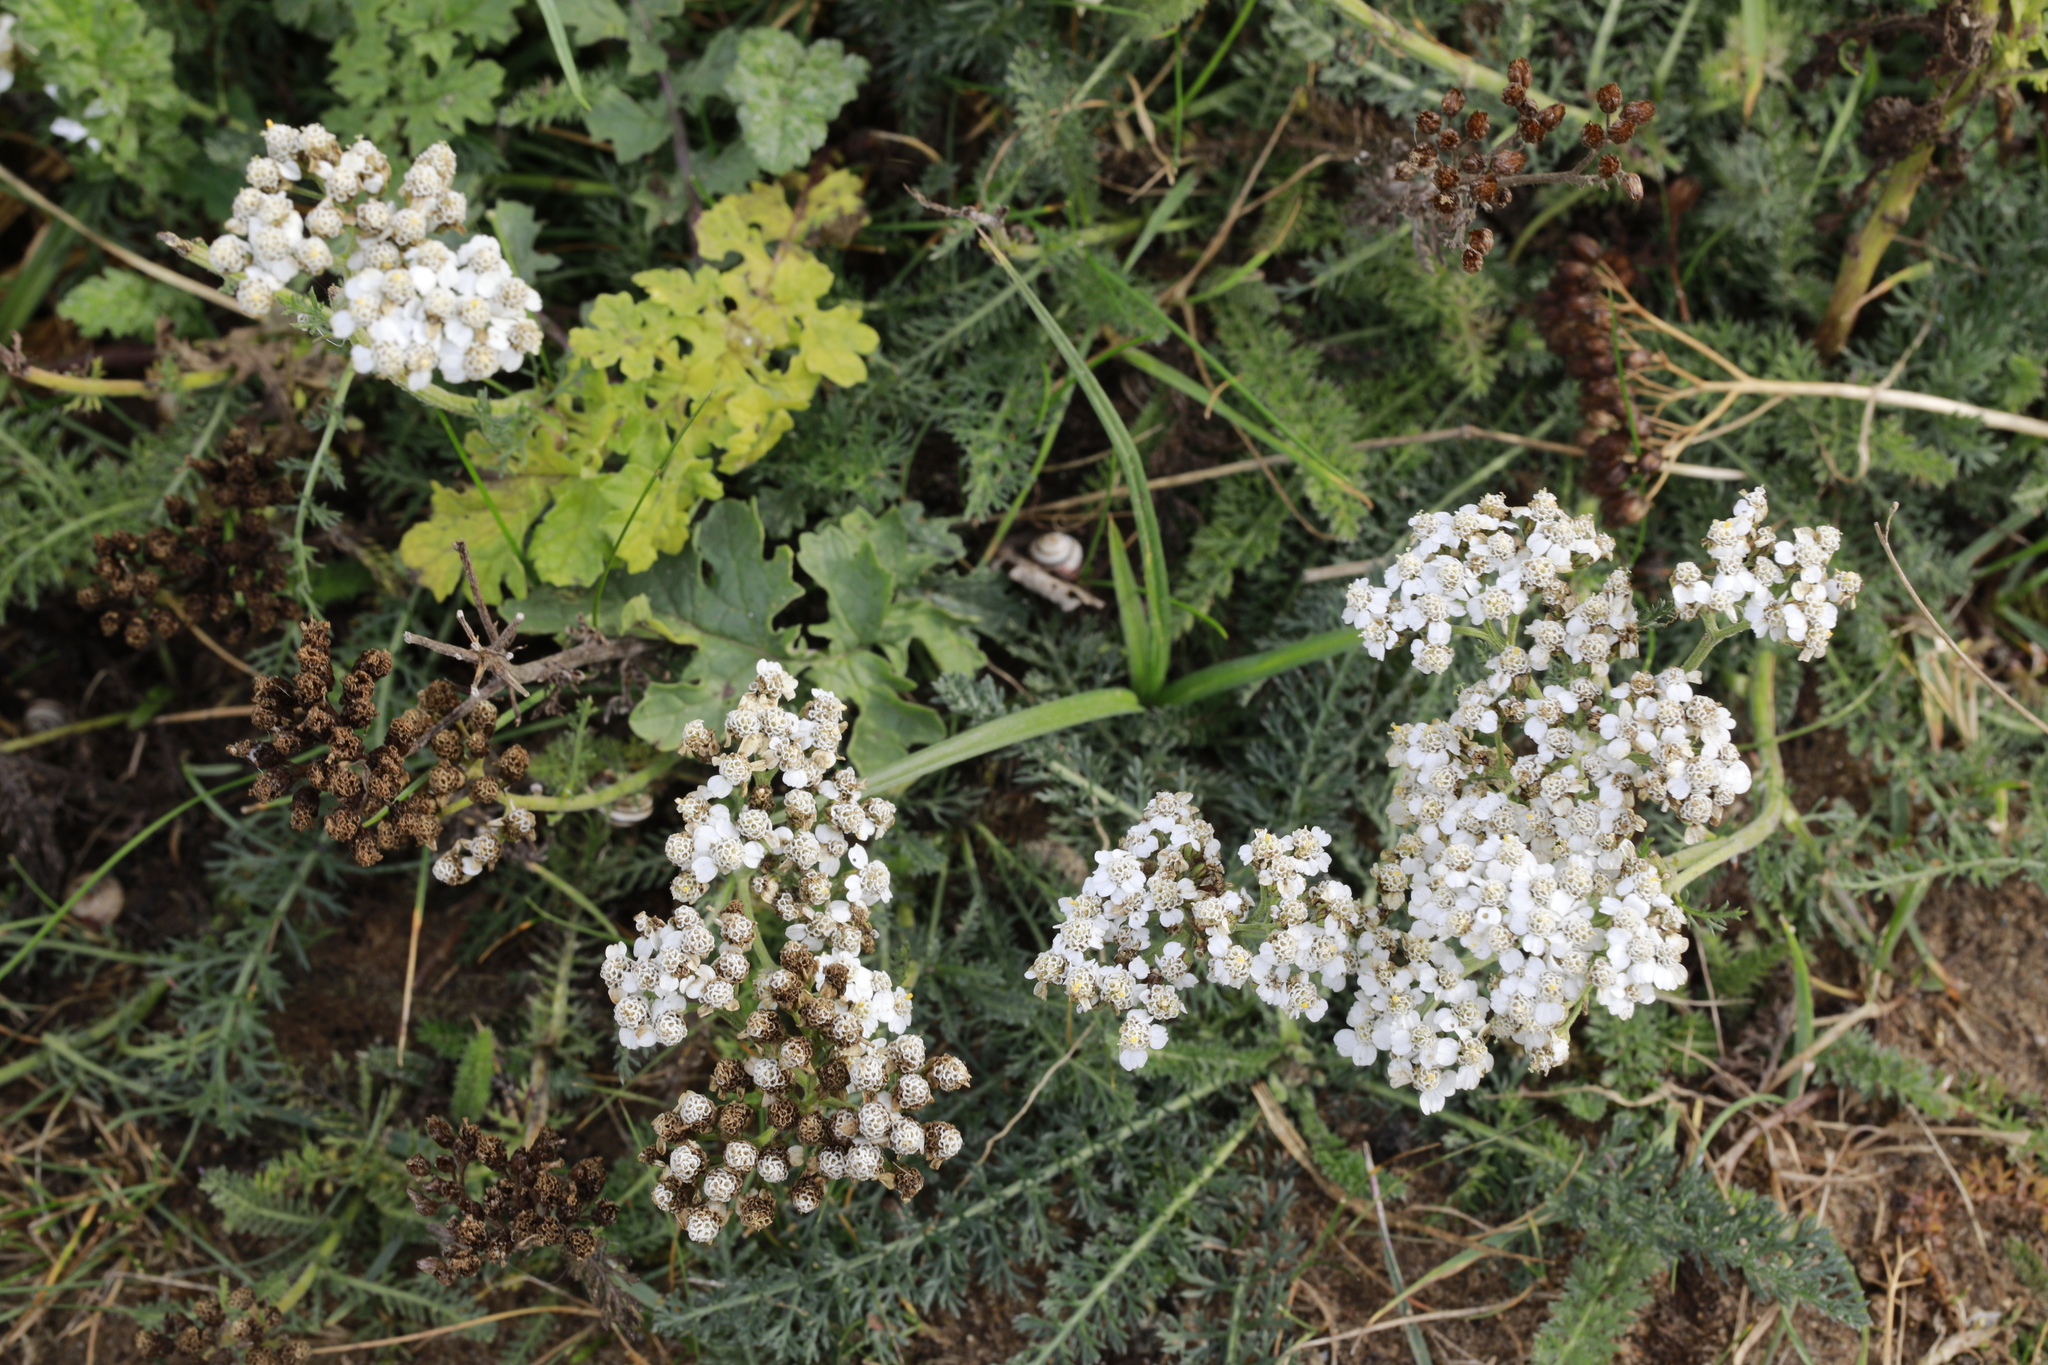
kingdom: Plantae
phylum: Tracheophyta
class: Magnoliopsida
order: Asterales
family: Asteraceae
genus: Achillea
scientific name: Achillea millefolium
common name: Yarrow
